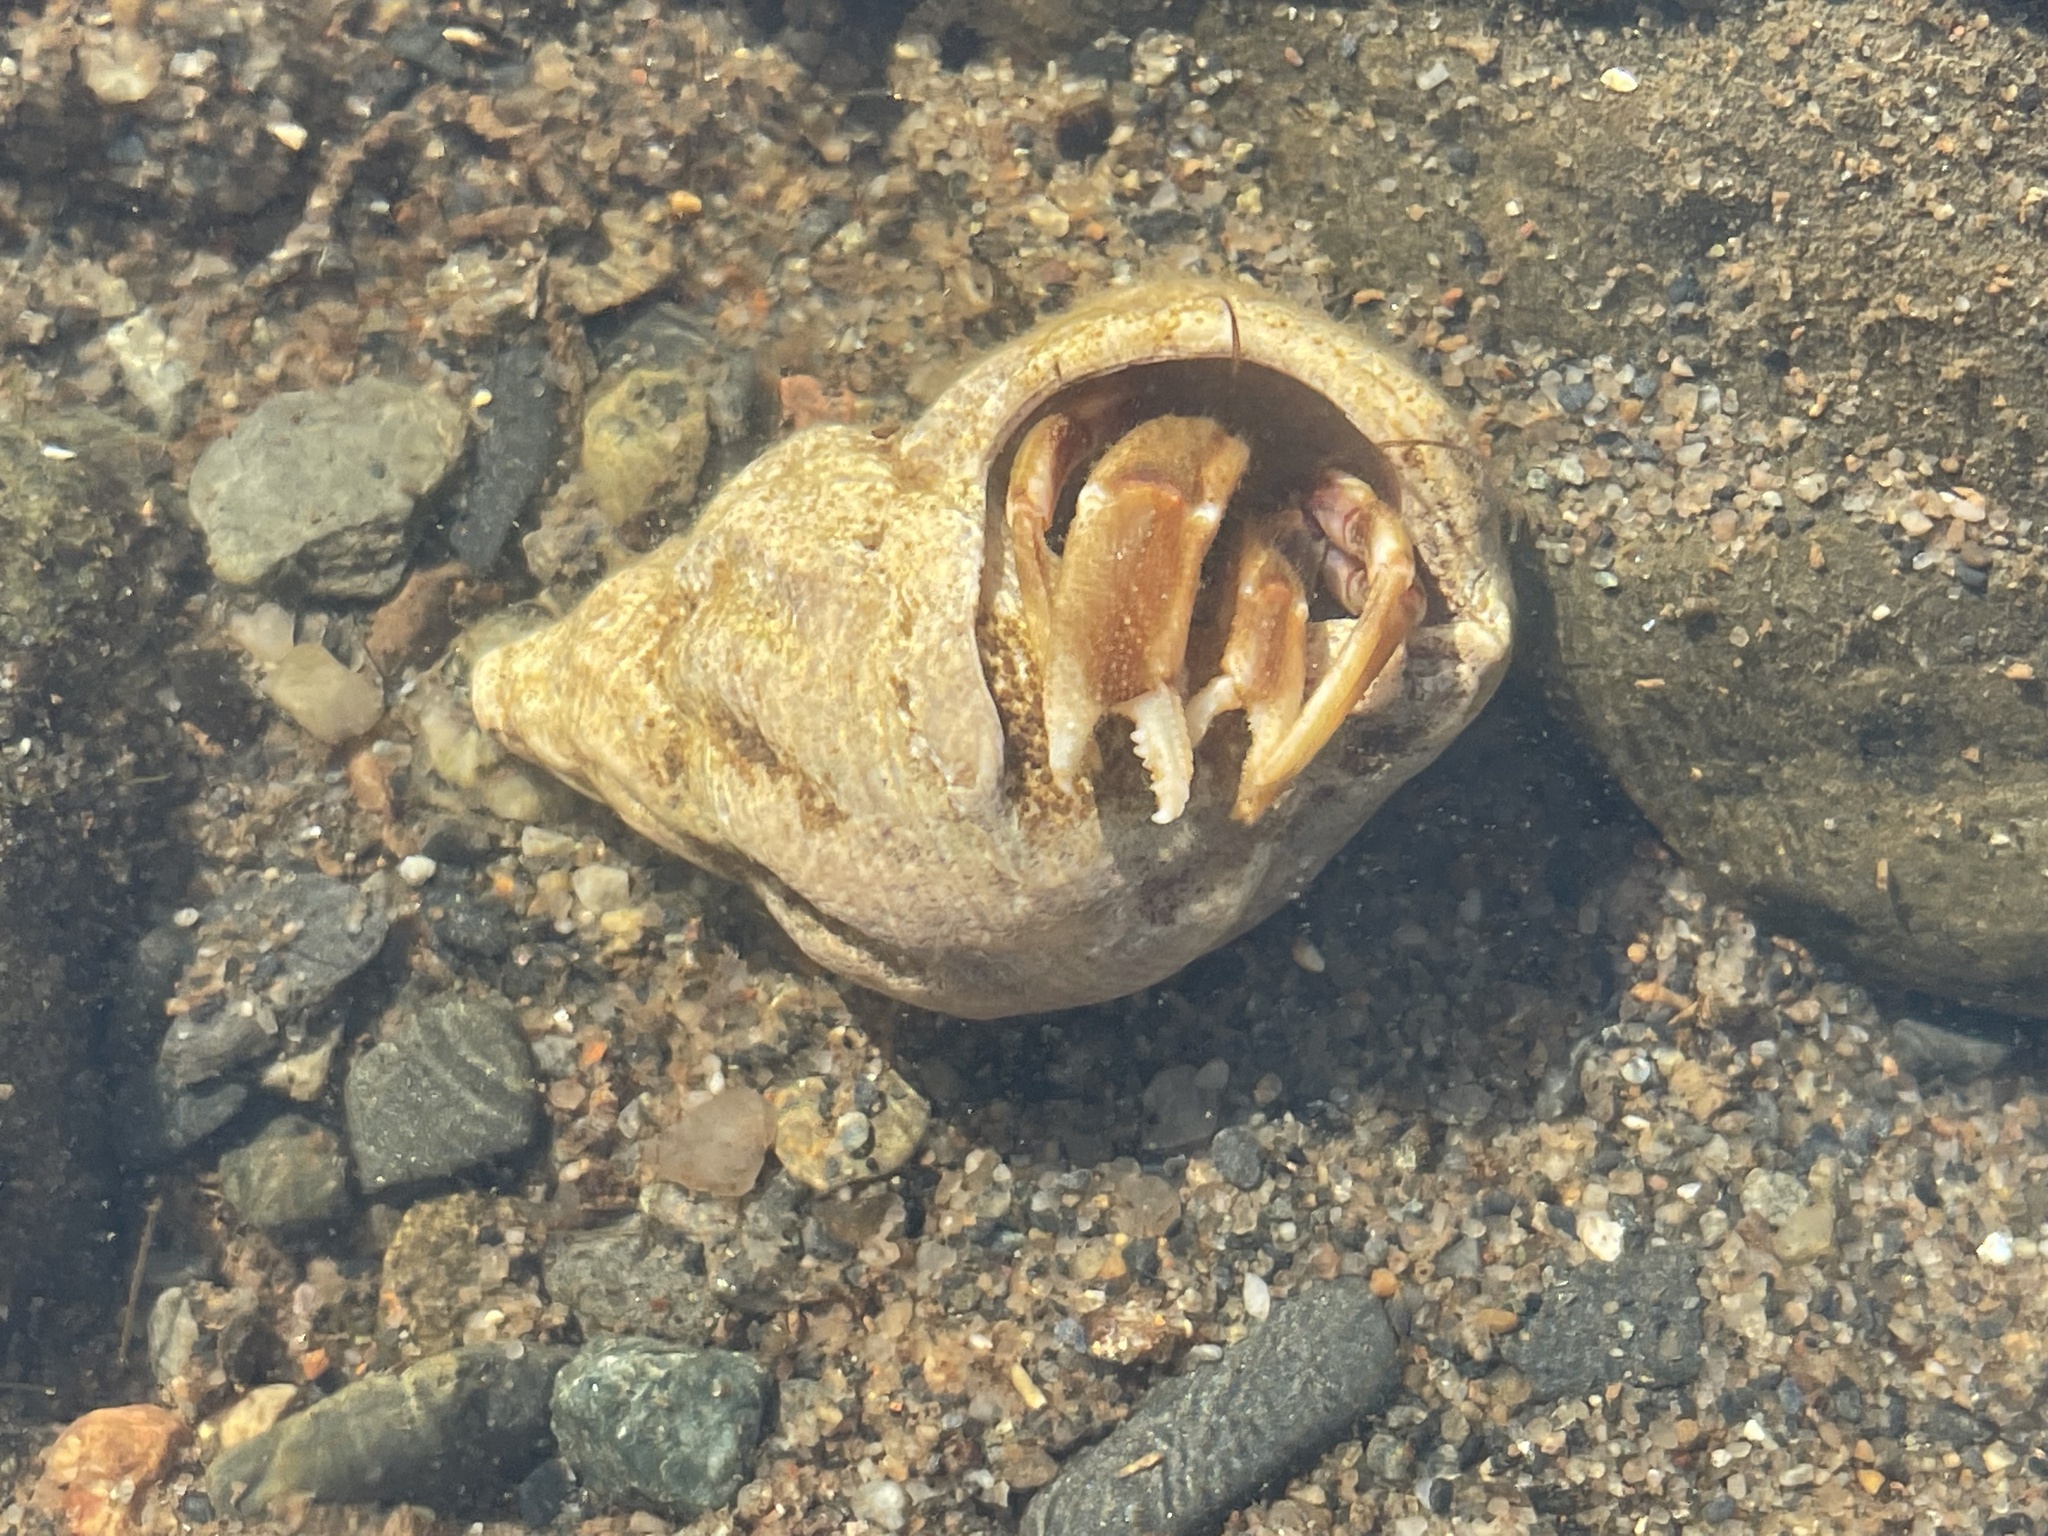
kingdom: Animalia
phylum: Arthropoda
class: Malacostraca
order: Decapoda
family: Paguridae
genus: Pagurus
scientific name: Pagurus longicarpus
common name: Long-armed hermit crab
